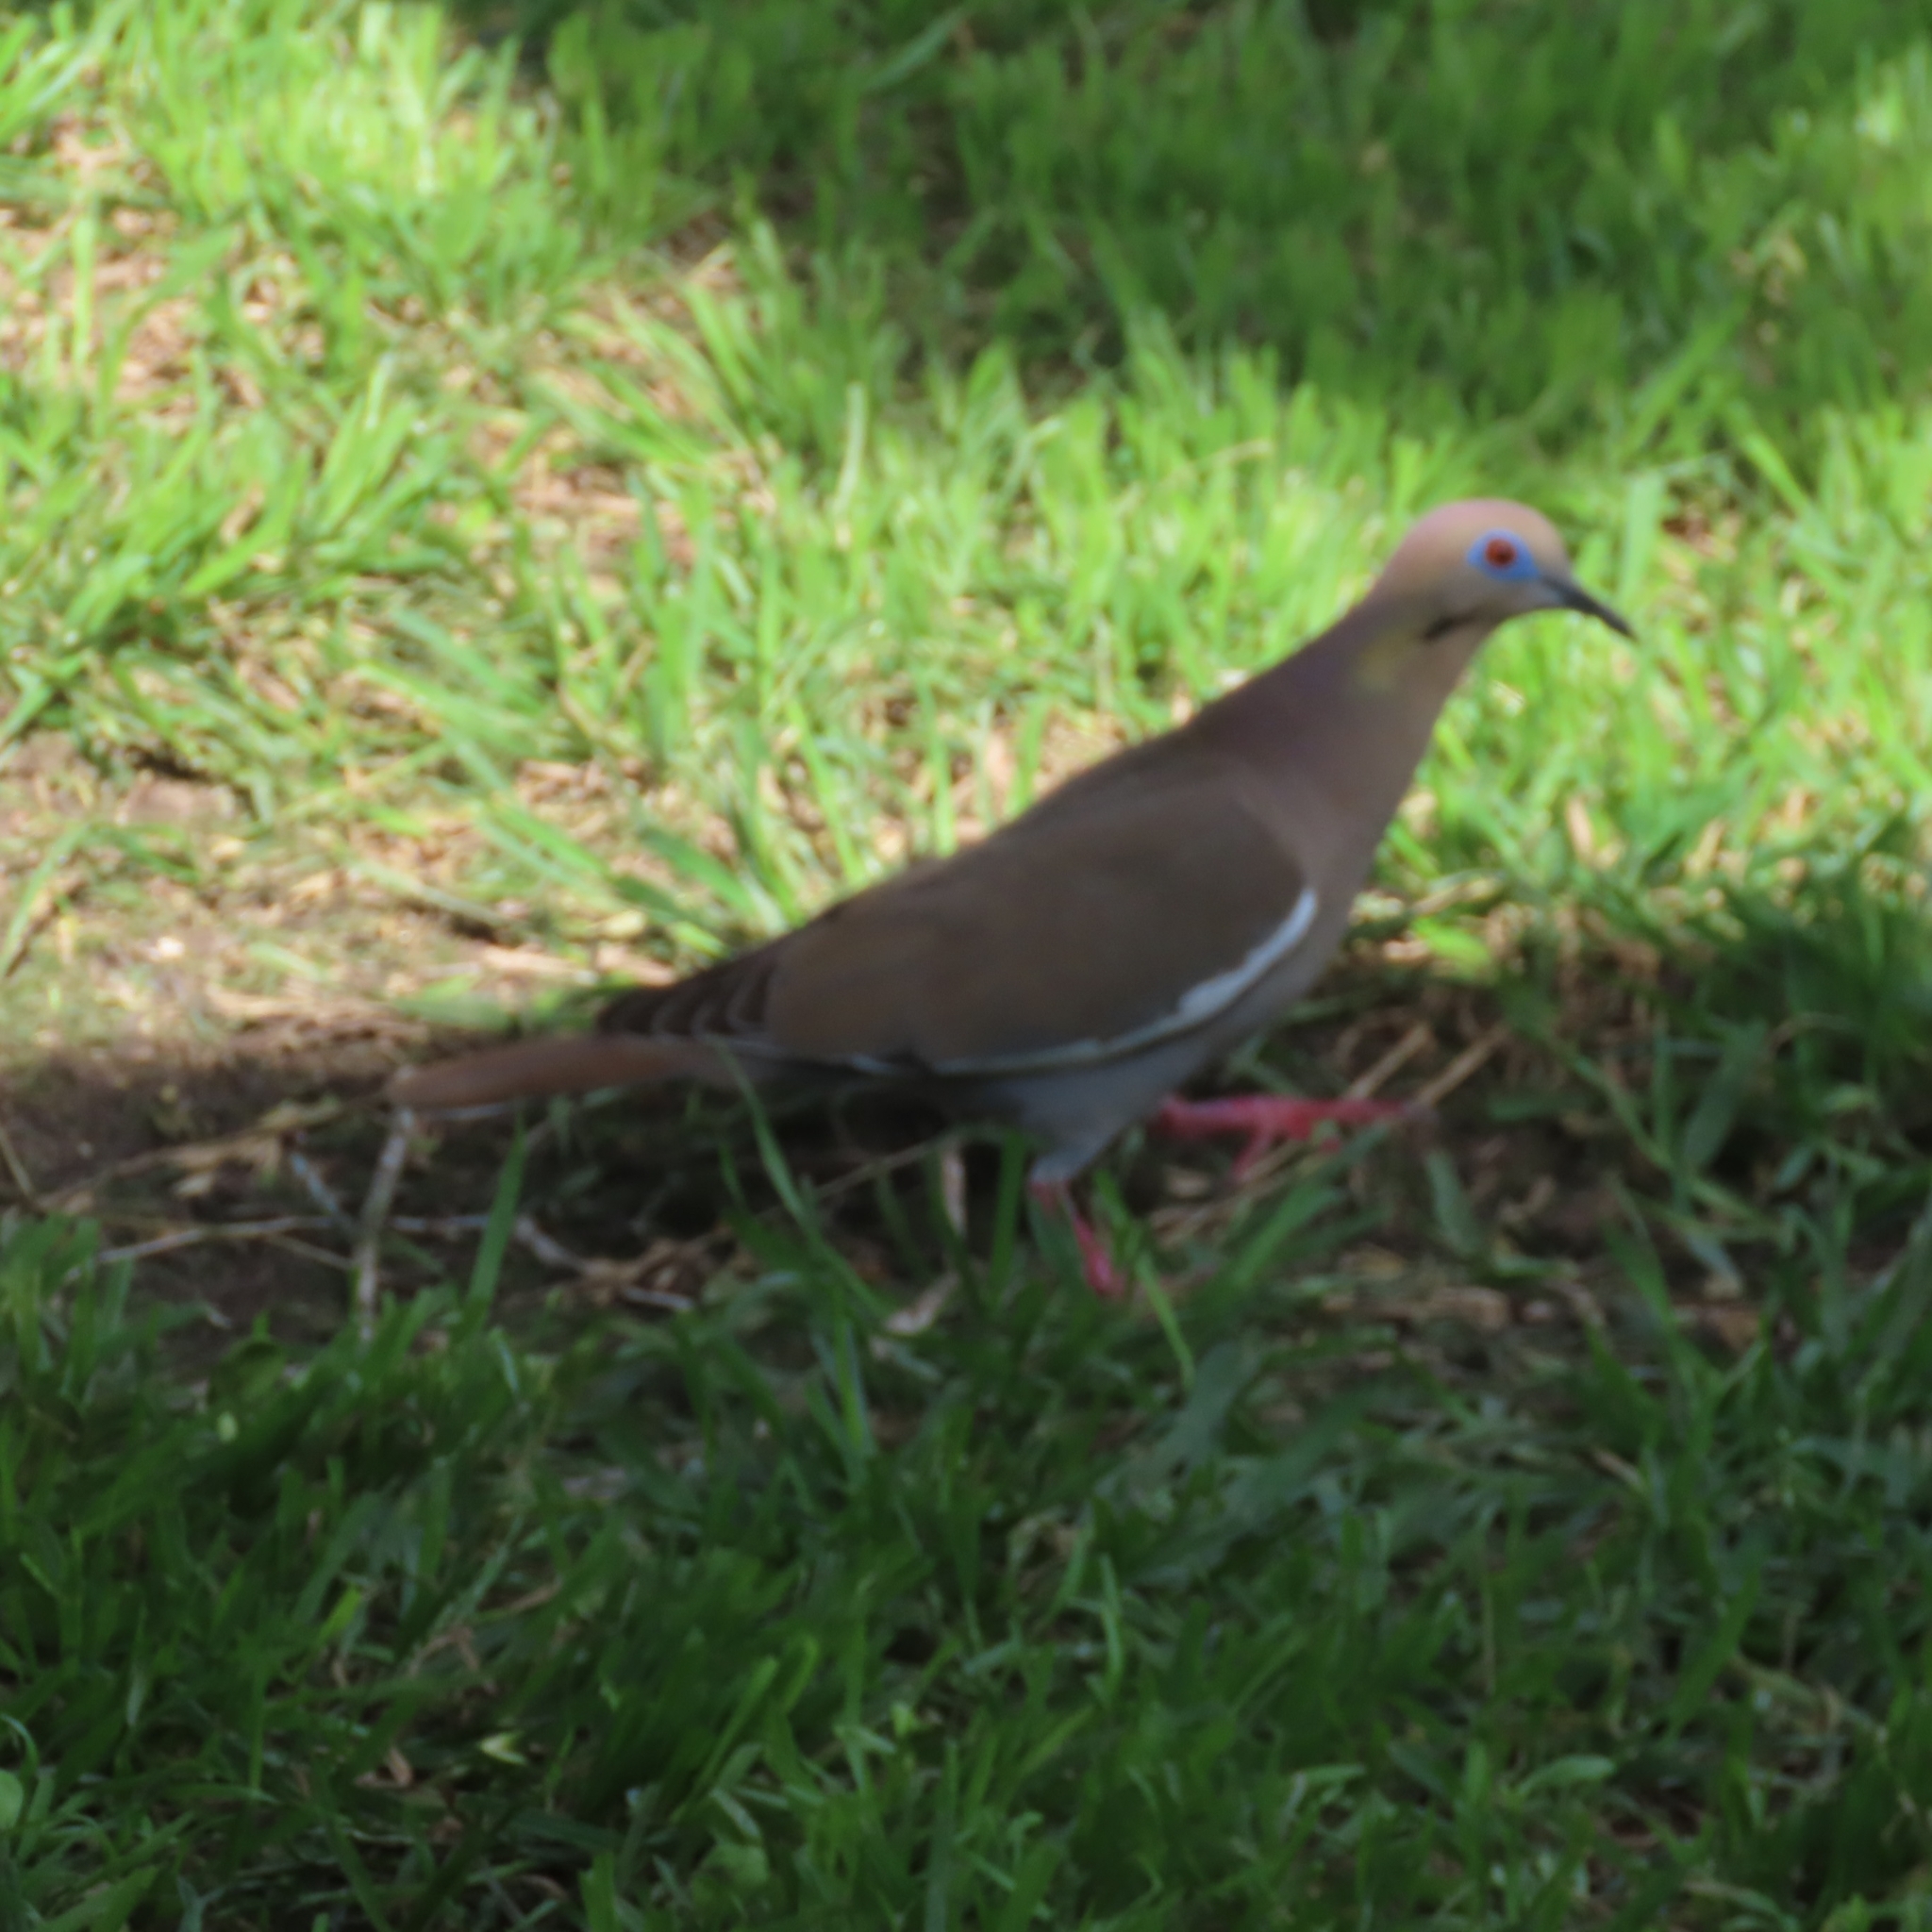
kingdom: Animalia
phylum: Chordata
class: Aves
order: Columbiformes
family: Columbidae
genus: Zenaida
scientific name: Zenaida asiatica
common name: White-winged dove
